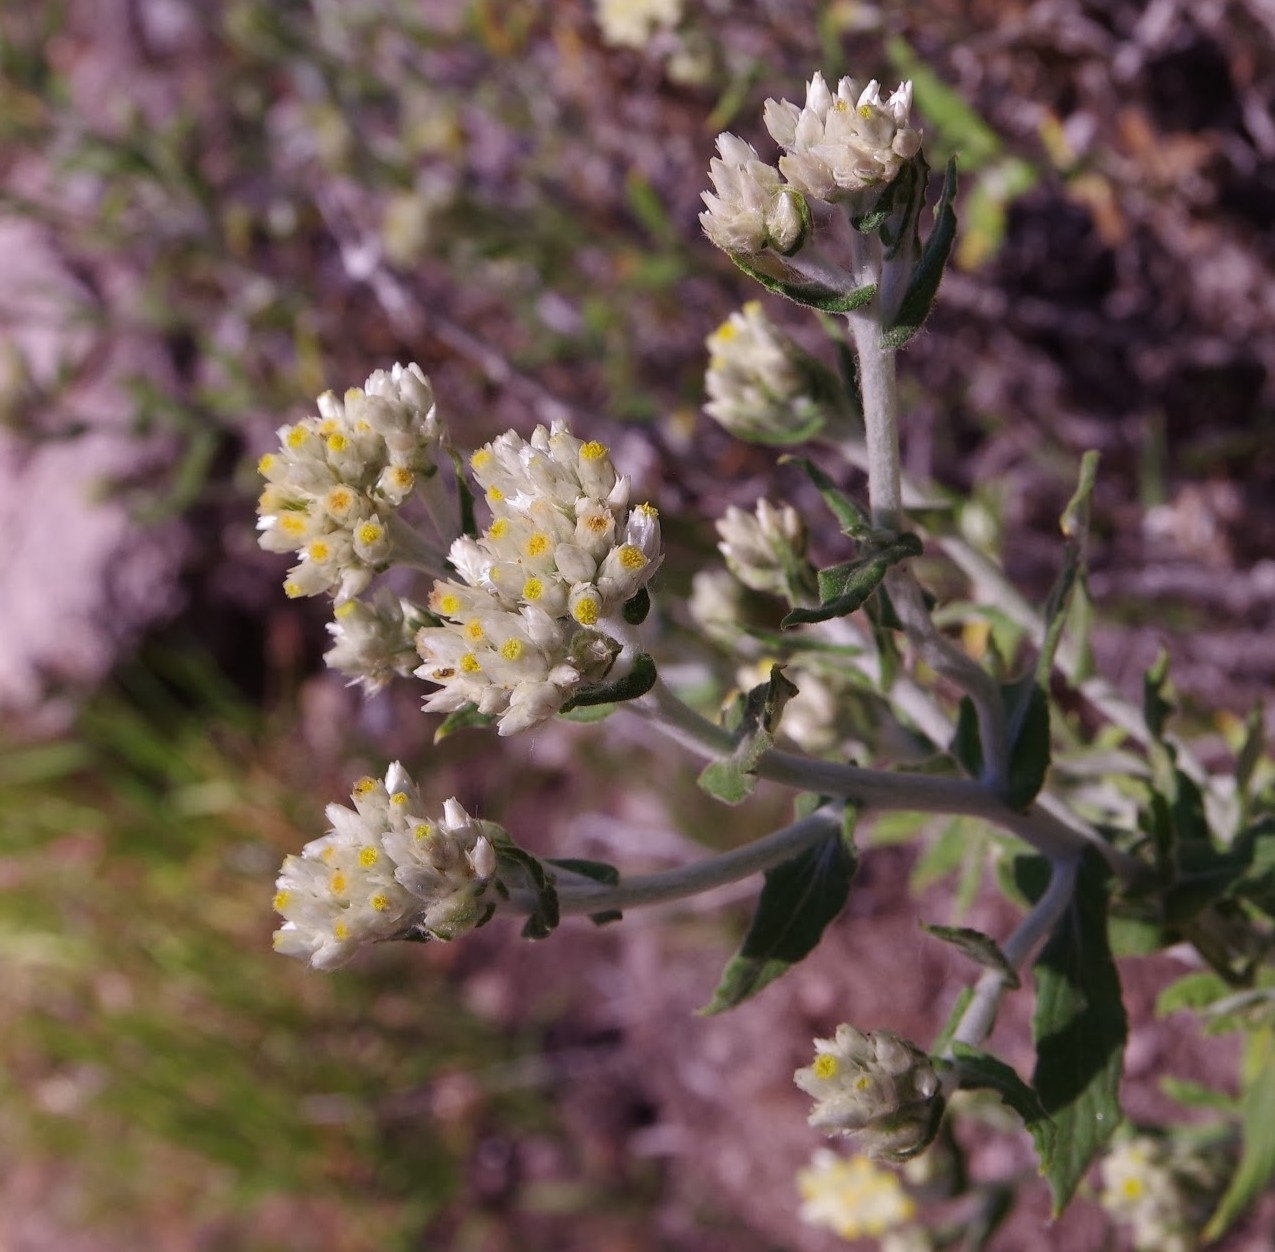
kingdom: Plantae
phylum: Tracheophyta
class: Magnoliopsida
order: Asterales
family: Asteraceae
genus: Pseudognaphalium
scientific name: Pseudognaphalium biolettii
